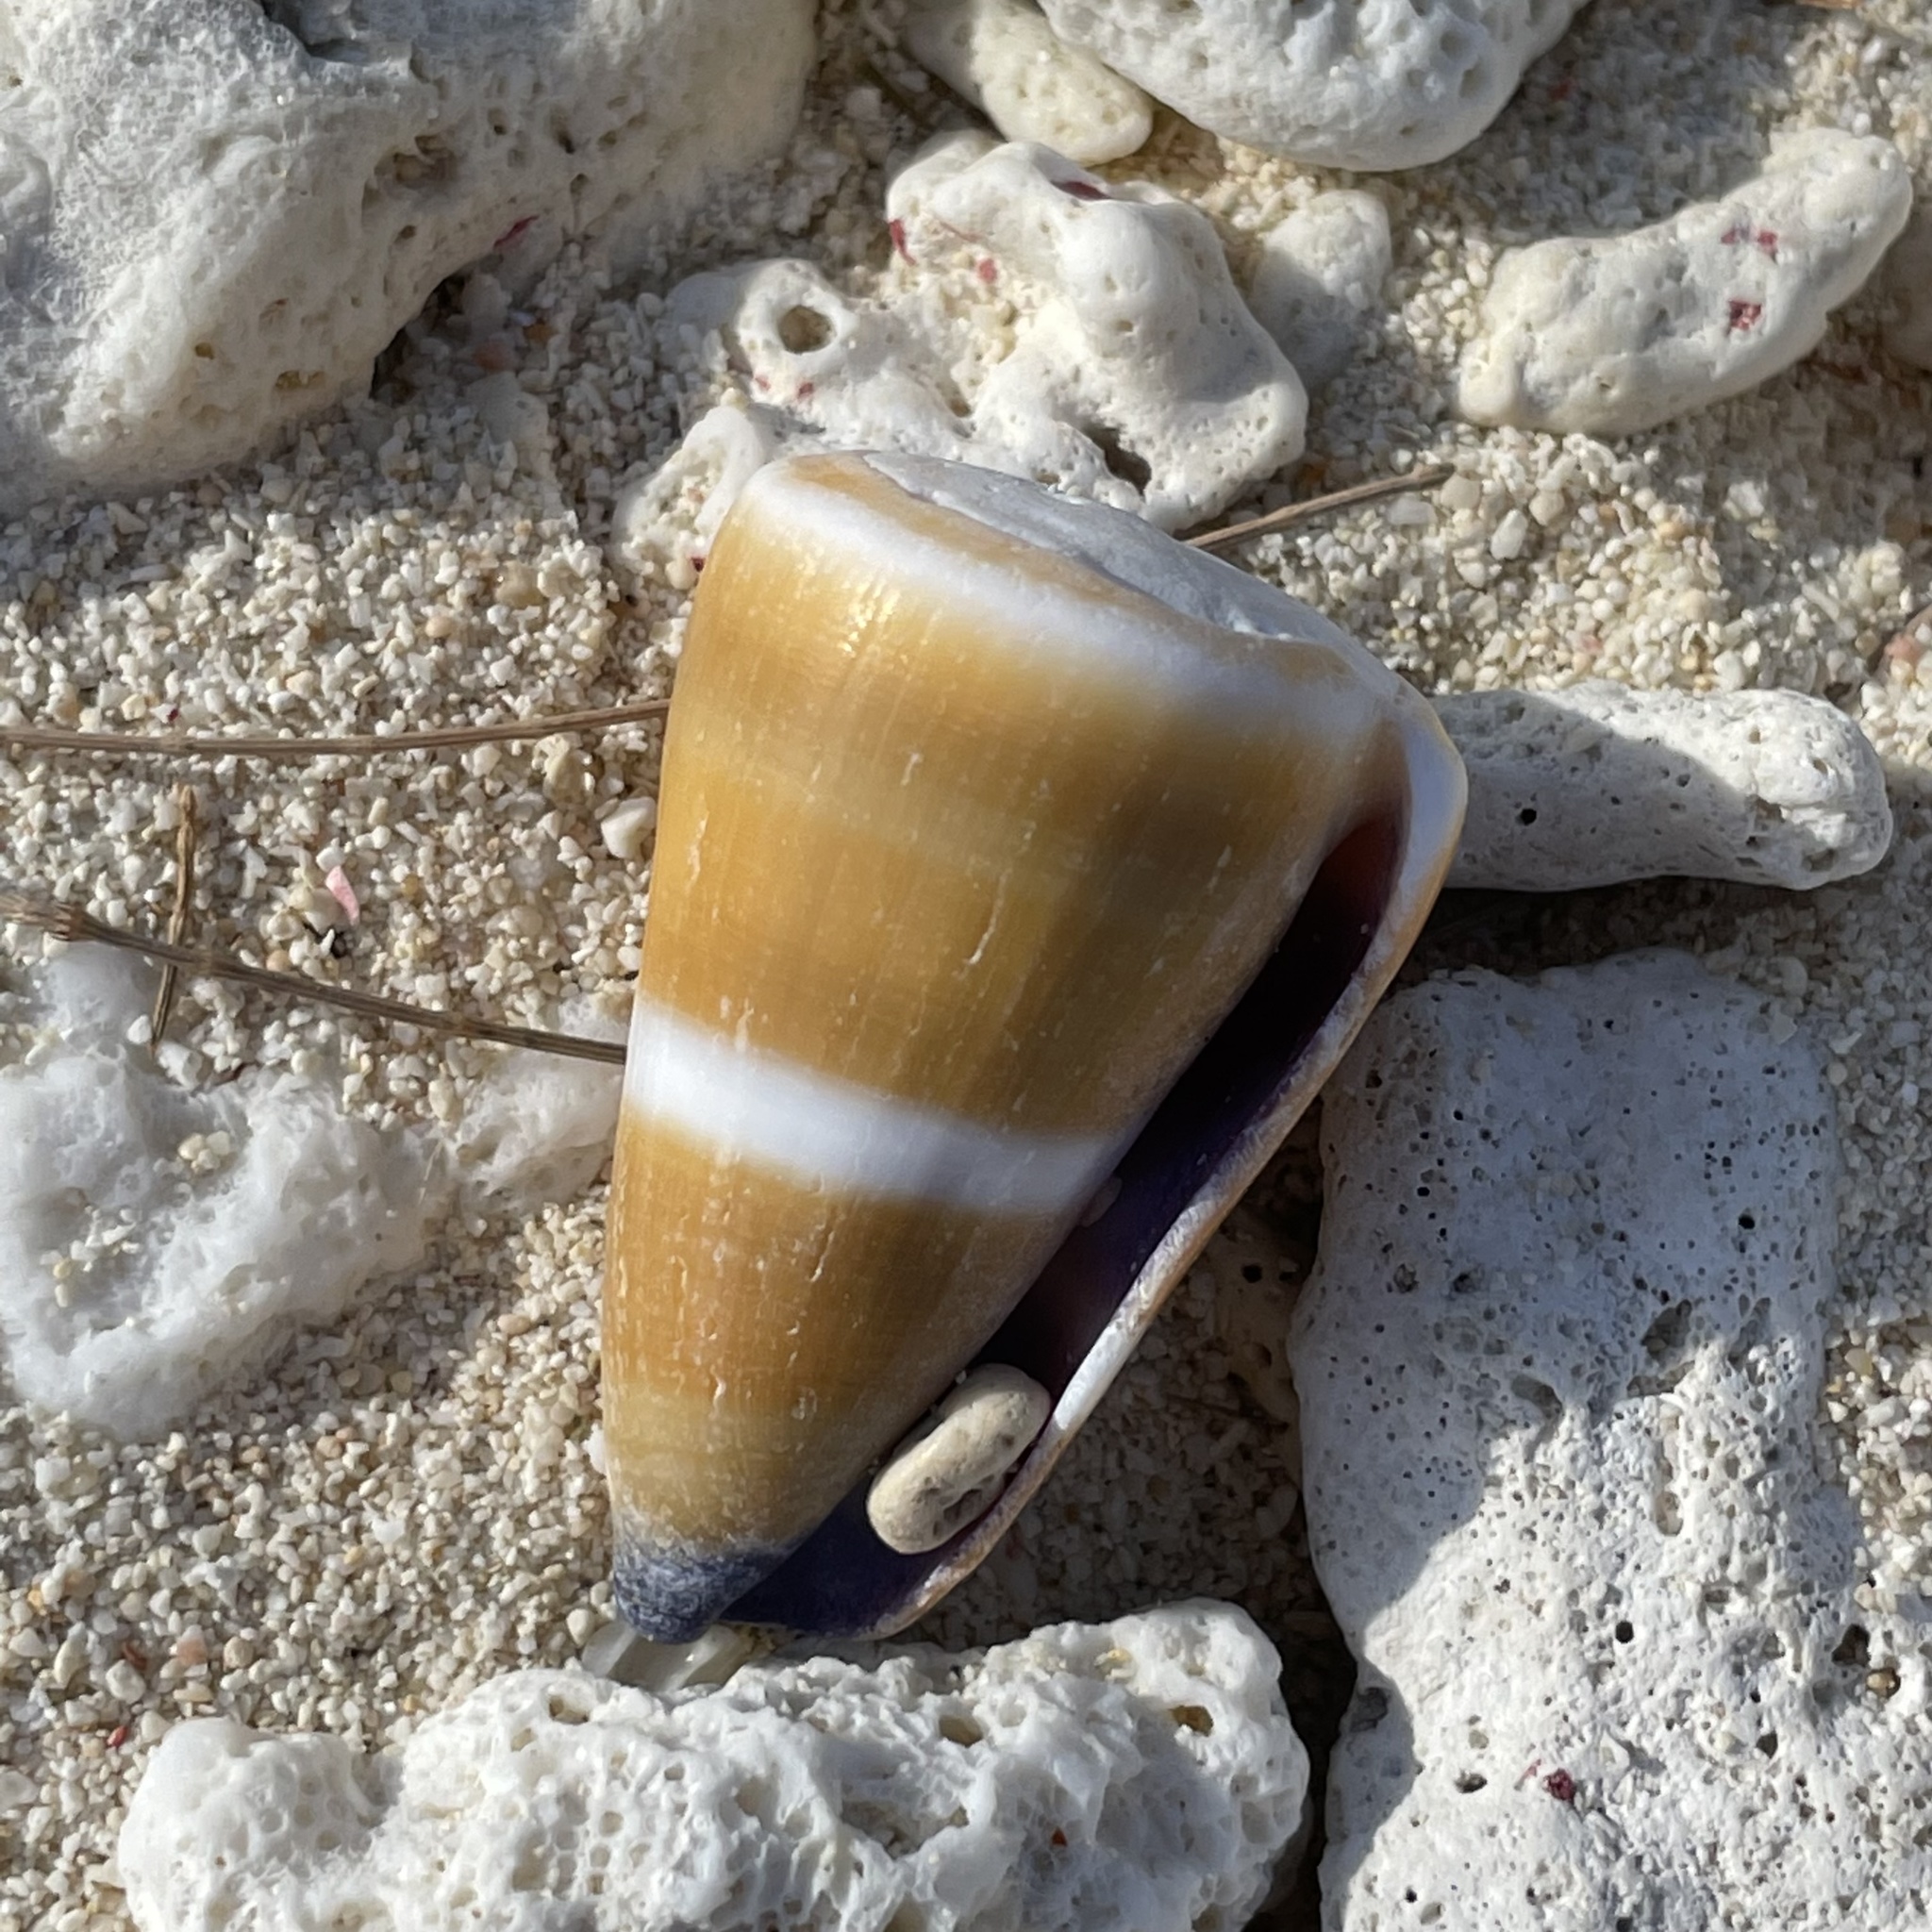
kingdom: Animalia
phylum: Mollusca
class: Gastropoda
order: Neogastropoda
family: Conidae
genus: Conus
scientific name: Conus flavidus
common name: Golden-yellow cone
